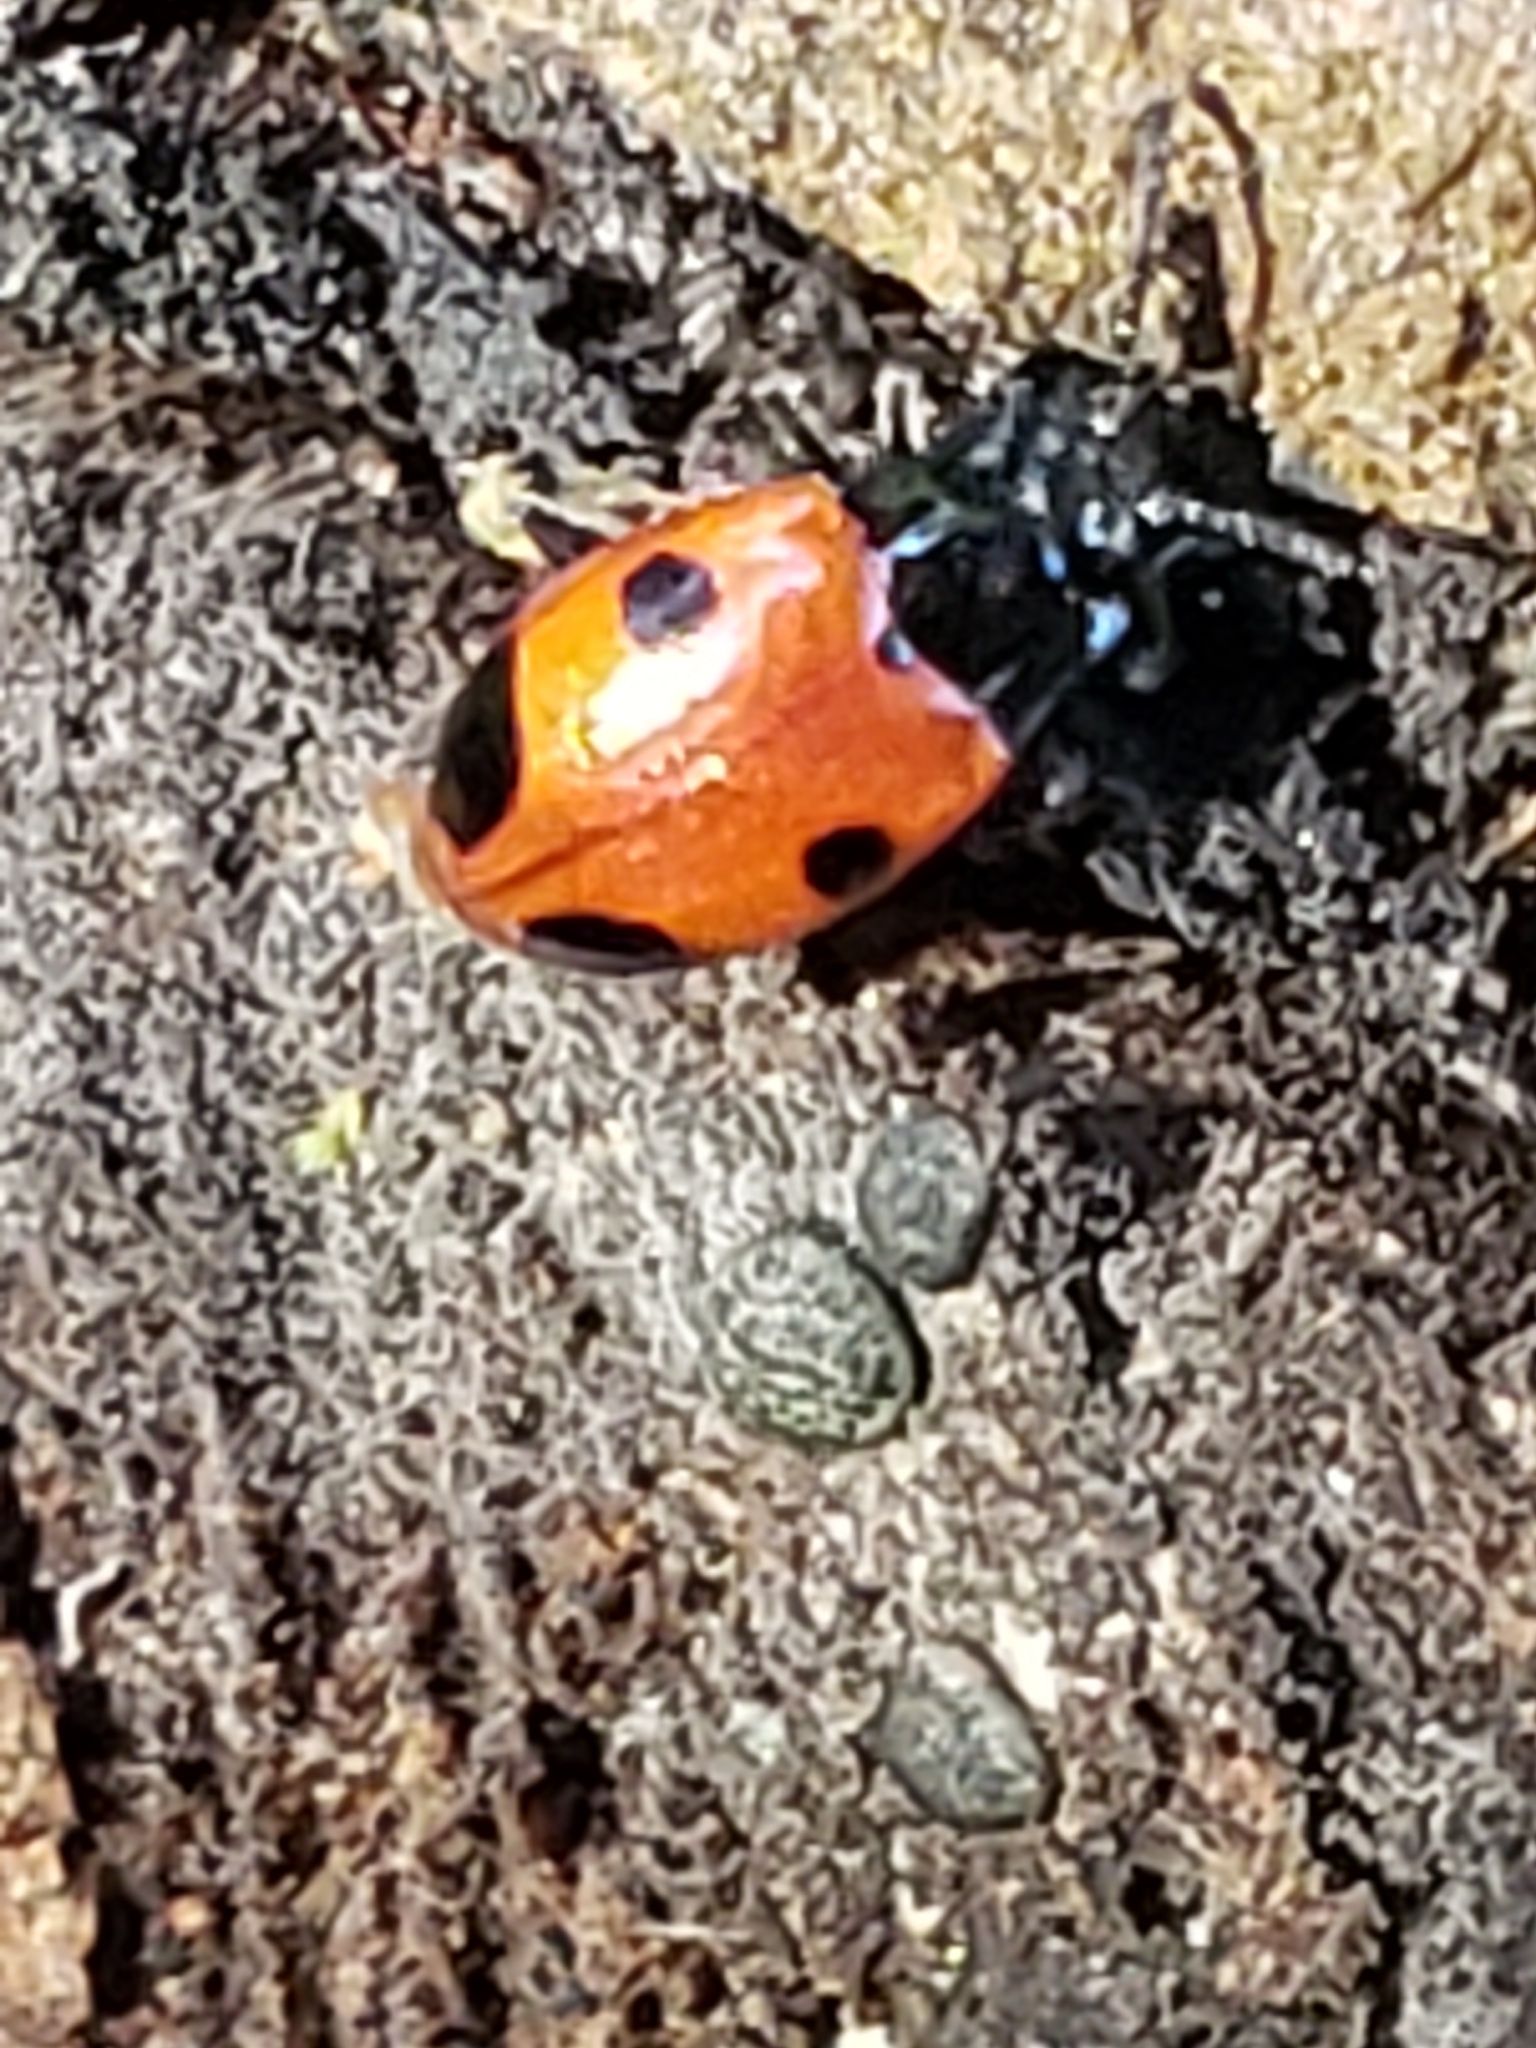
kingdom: Animalia
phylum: Arthropoda
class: Insecta
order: Coleoptera
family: Endomychidae
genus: Endomychus
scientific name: Endomychus biguttatus
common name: Handsome fungus beetle
